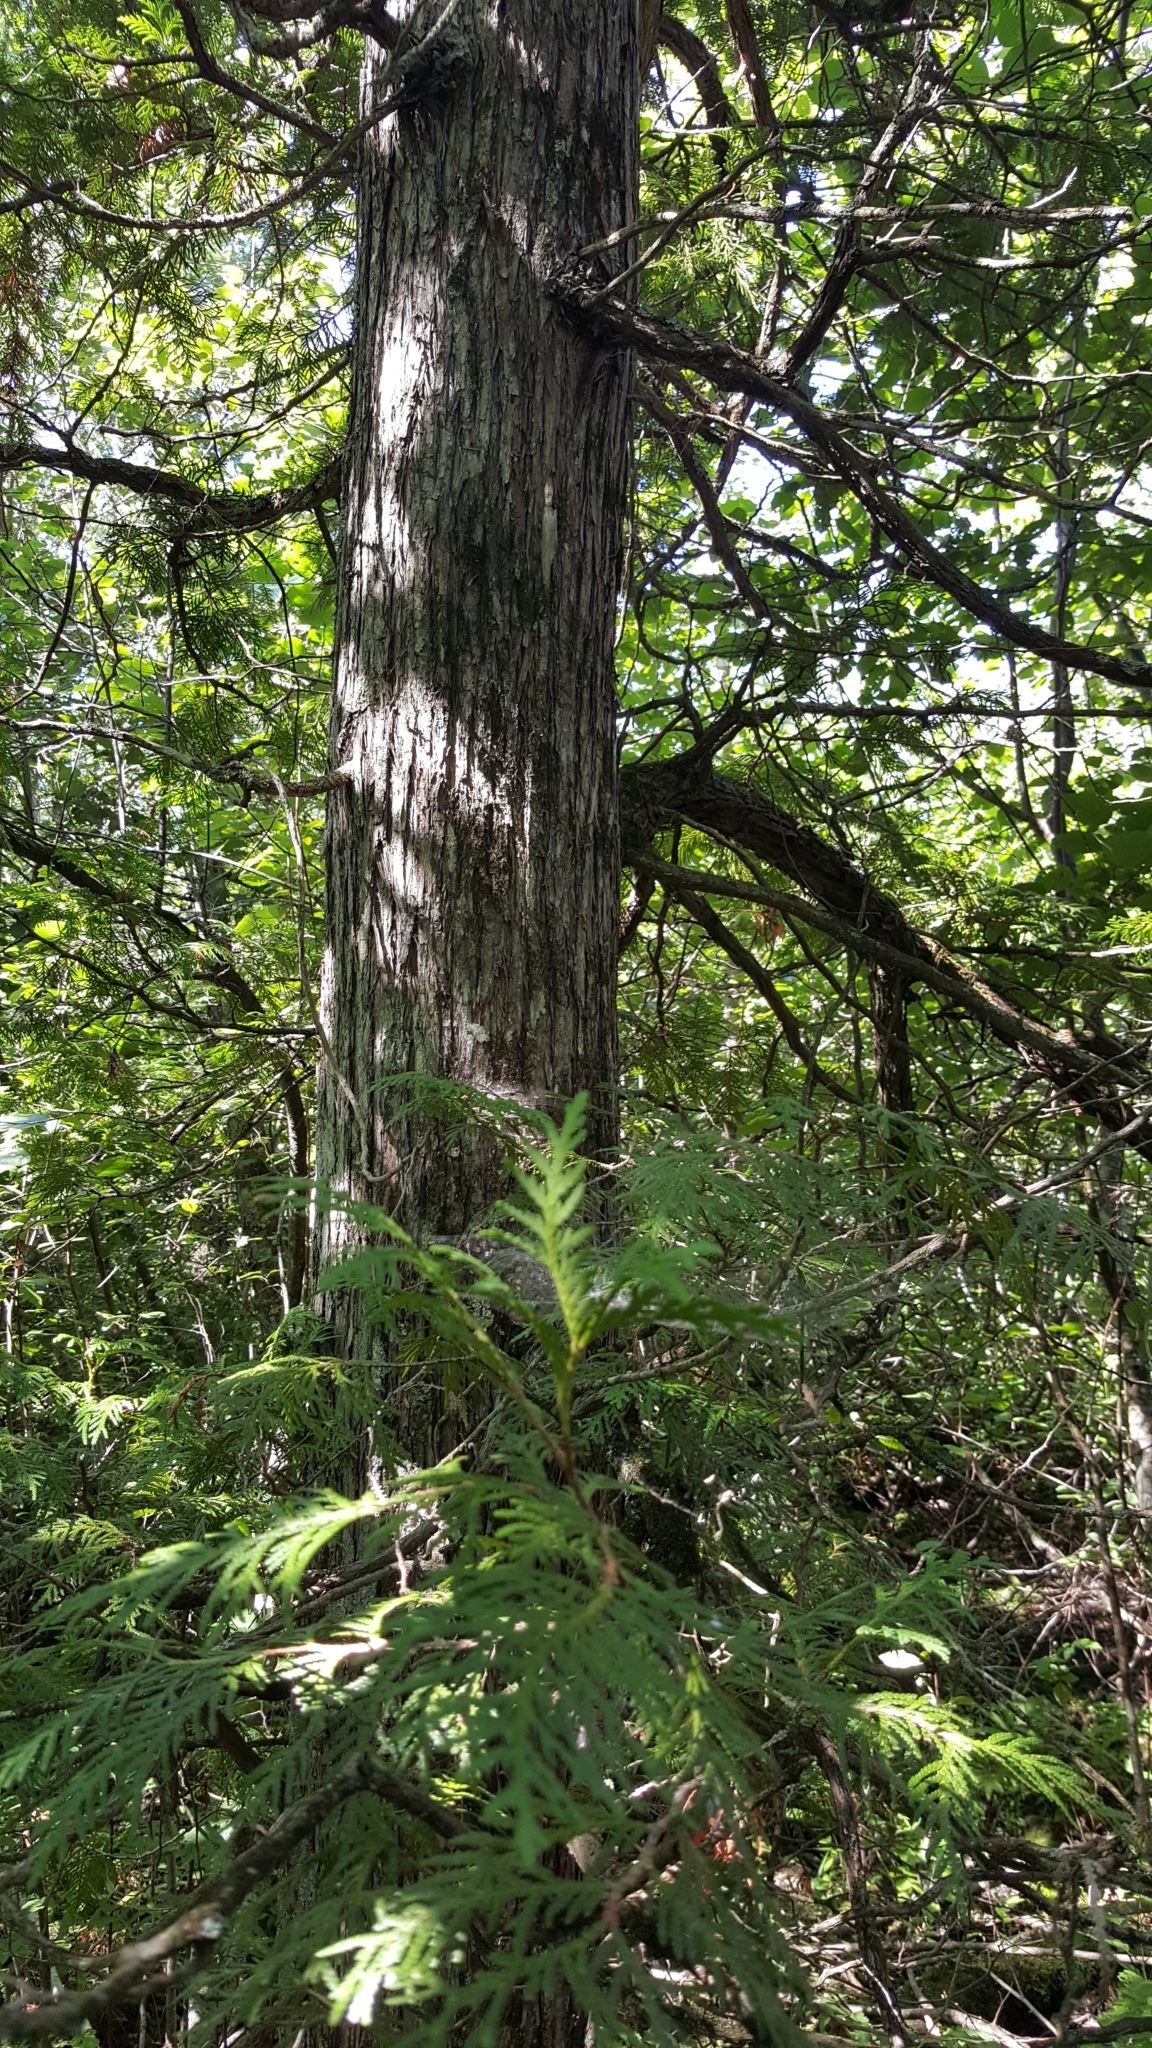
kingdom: Plantae
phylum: Tracheophyta
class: Pinopsida
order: Pinales
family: Cupressaceae
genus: Thuja
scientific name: Thuja occidentalis
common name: Northern white-cedar
